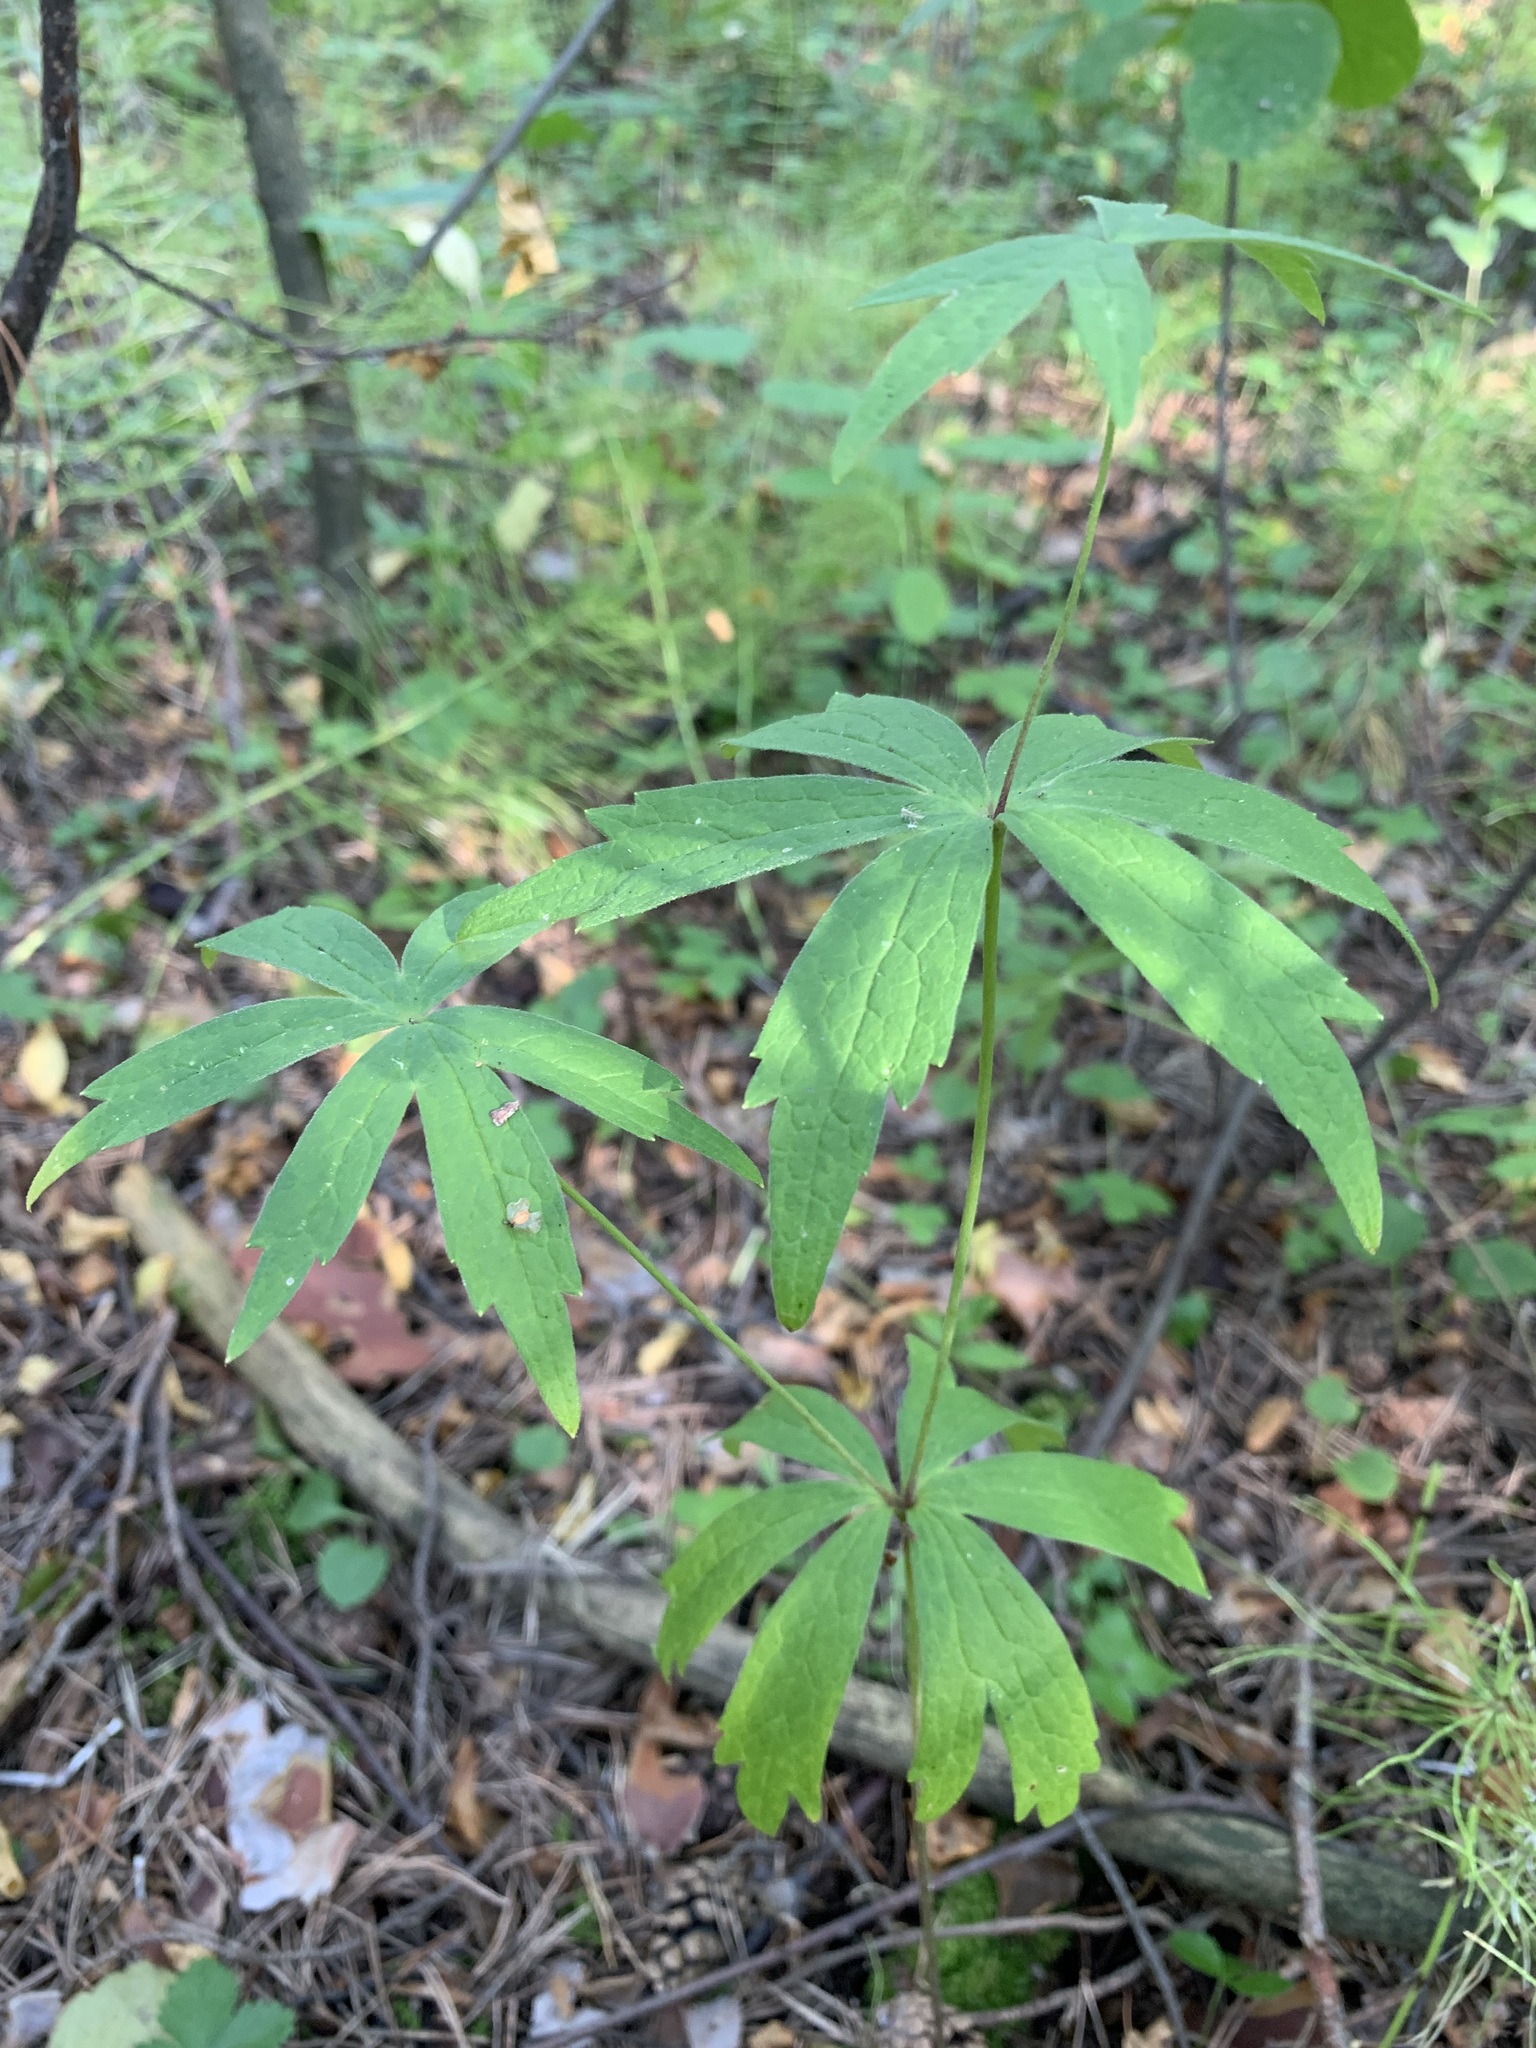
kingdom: Plantae
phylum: Tracheophyta
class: Magnoliopsida
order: Ranunculales
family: Ranunculaceae
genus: Anemonastrum
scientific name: Anemonastrum dichotomum
